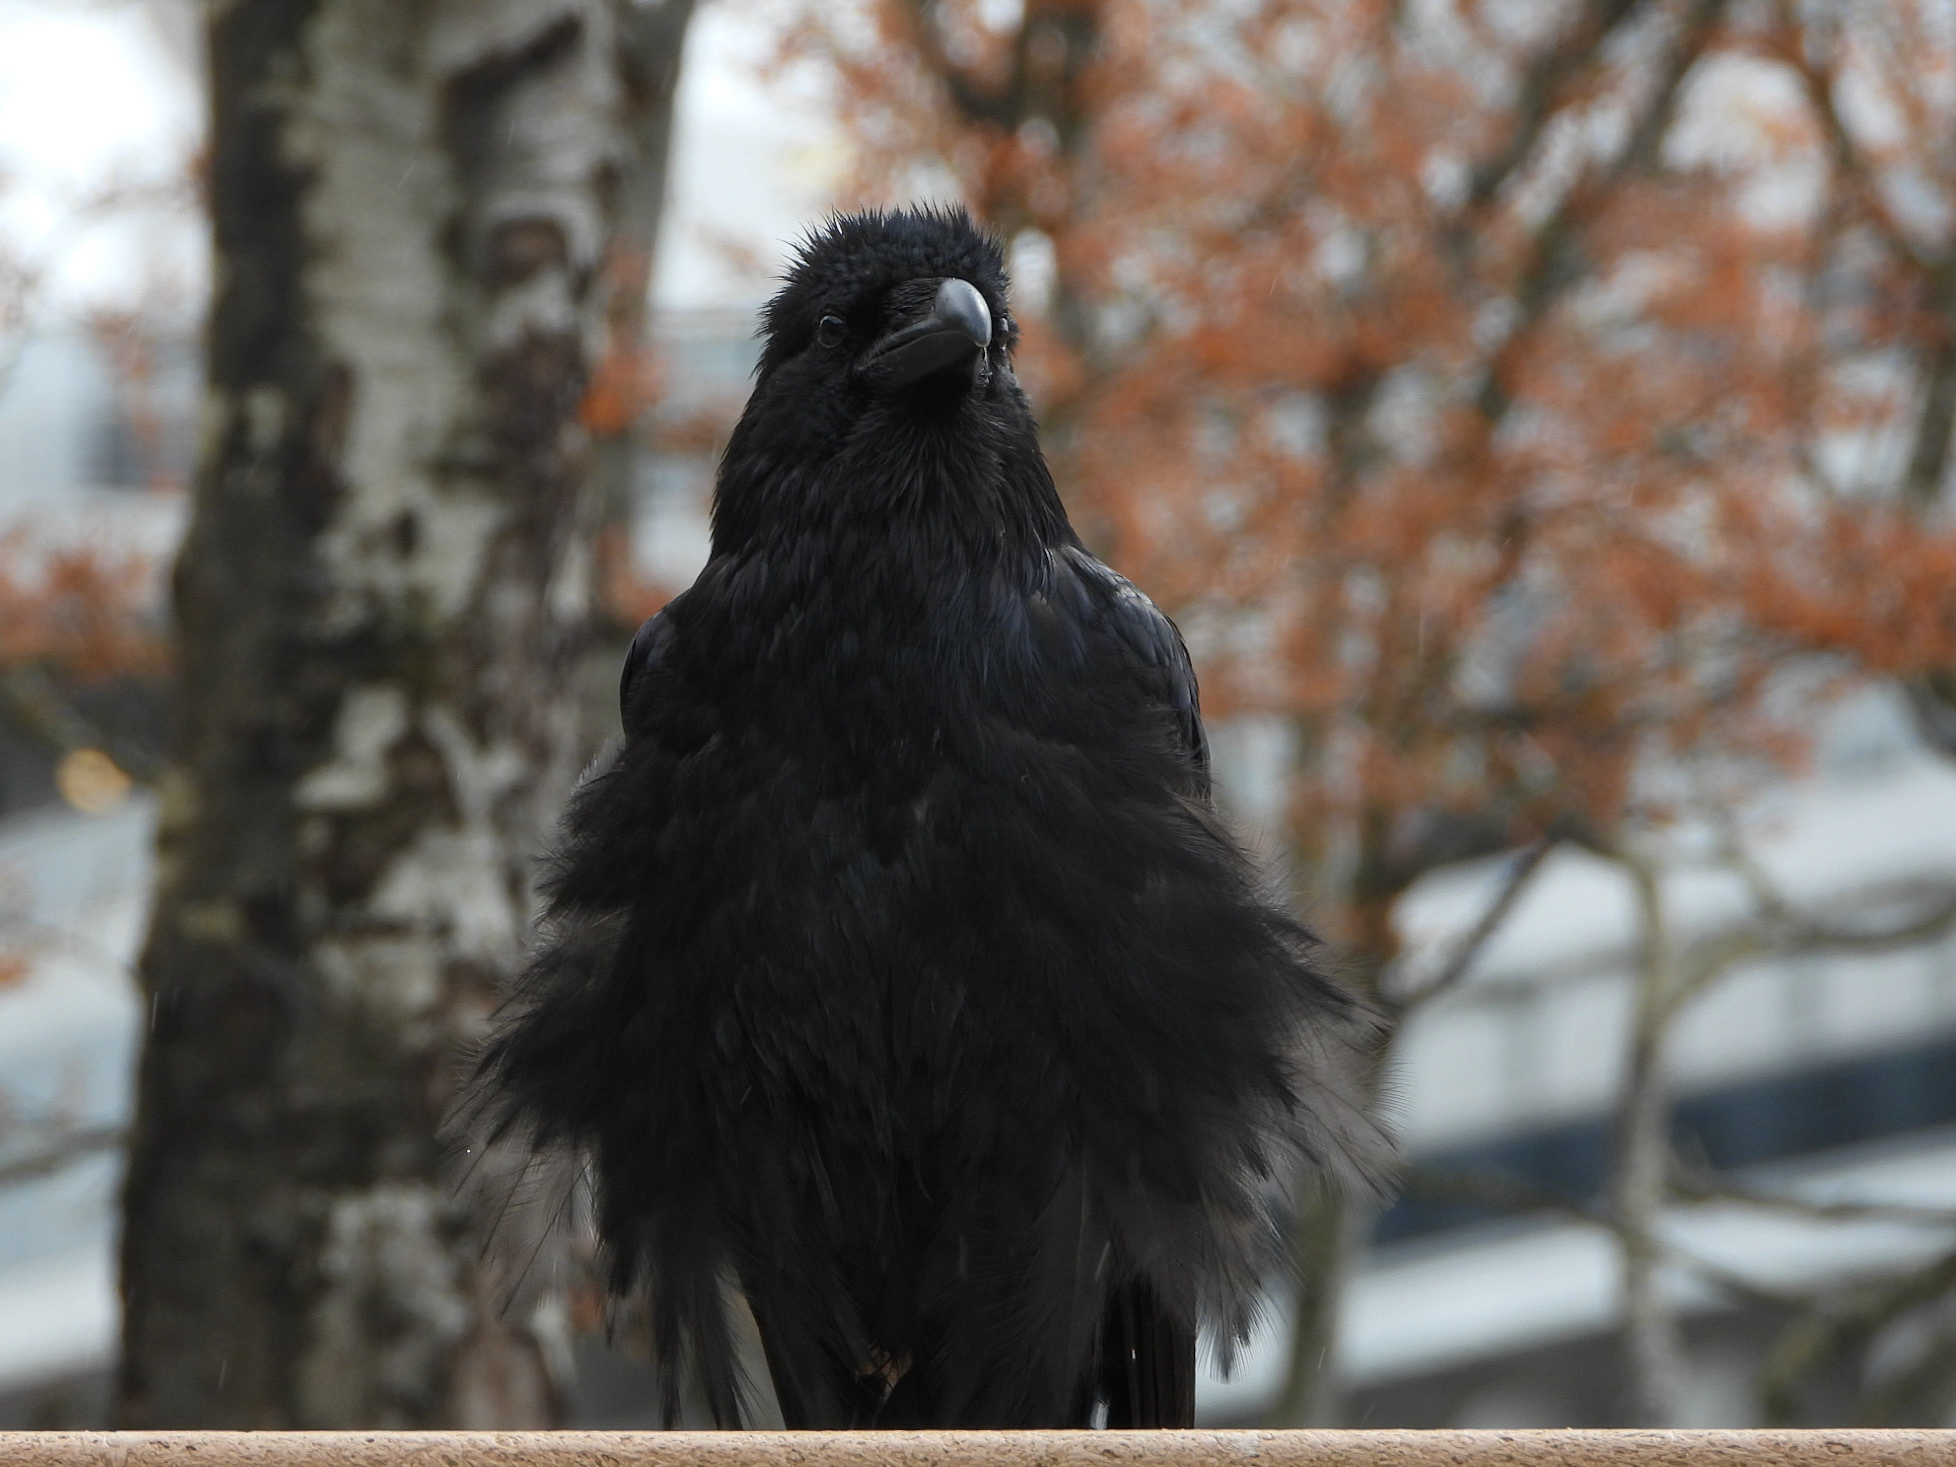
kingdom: Animalia
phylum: Chordata
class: Aves
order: Passeriformes
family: Corvidae
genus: Corvus
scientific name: Corvus corax
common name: Common raven
